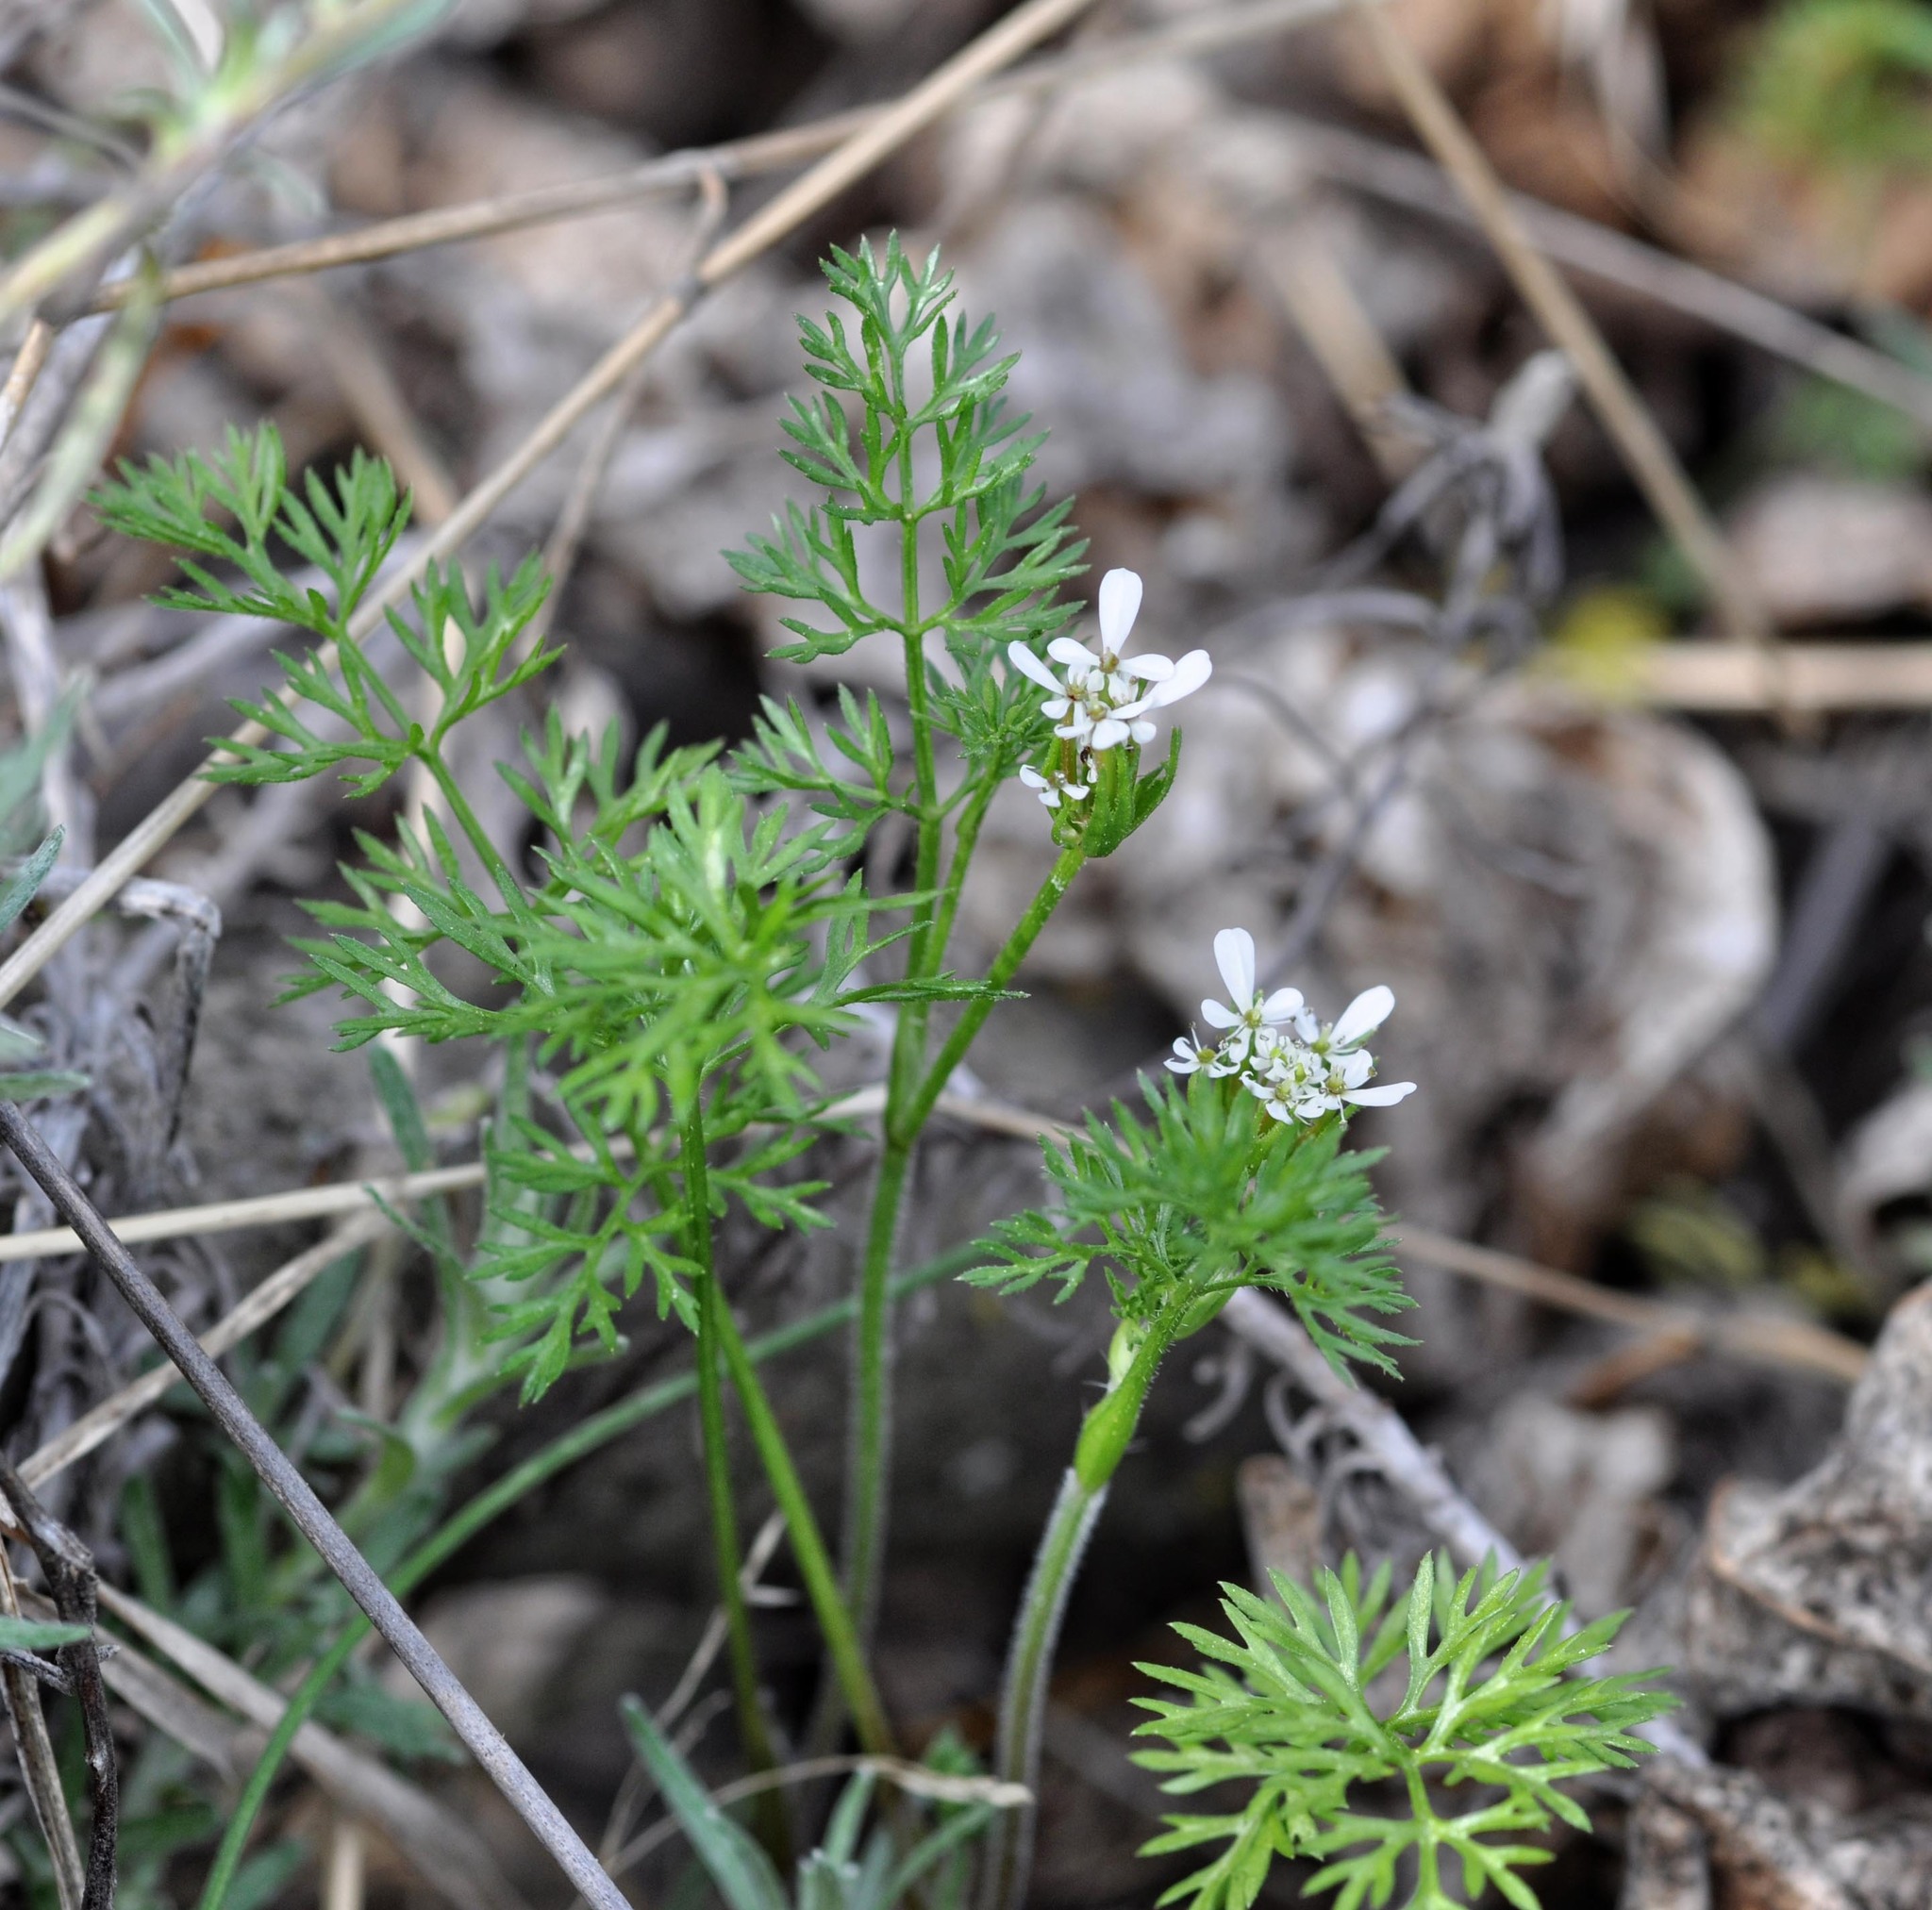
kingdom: Plantae
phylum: Tracheophyta
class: Magnoliopsida
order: Apiales
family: Apiaceae
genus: Scandix
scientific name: Scandix pecten-veneris
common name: Shepherd's-needle
